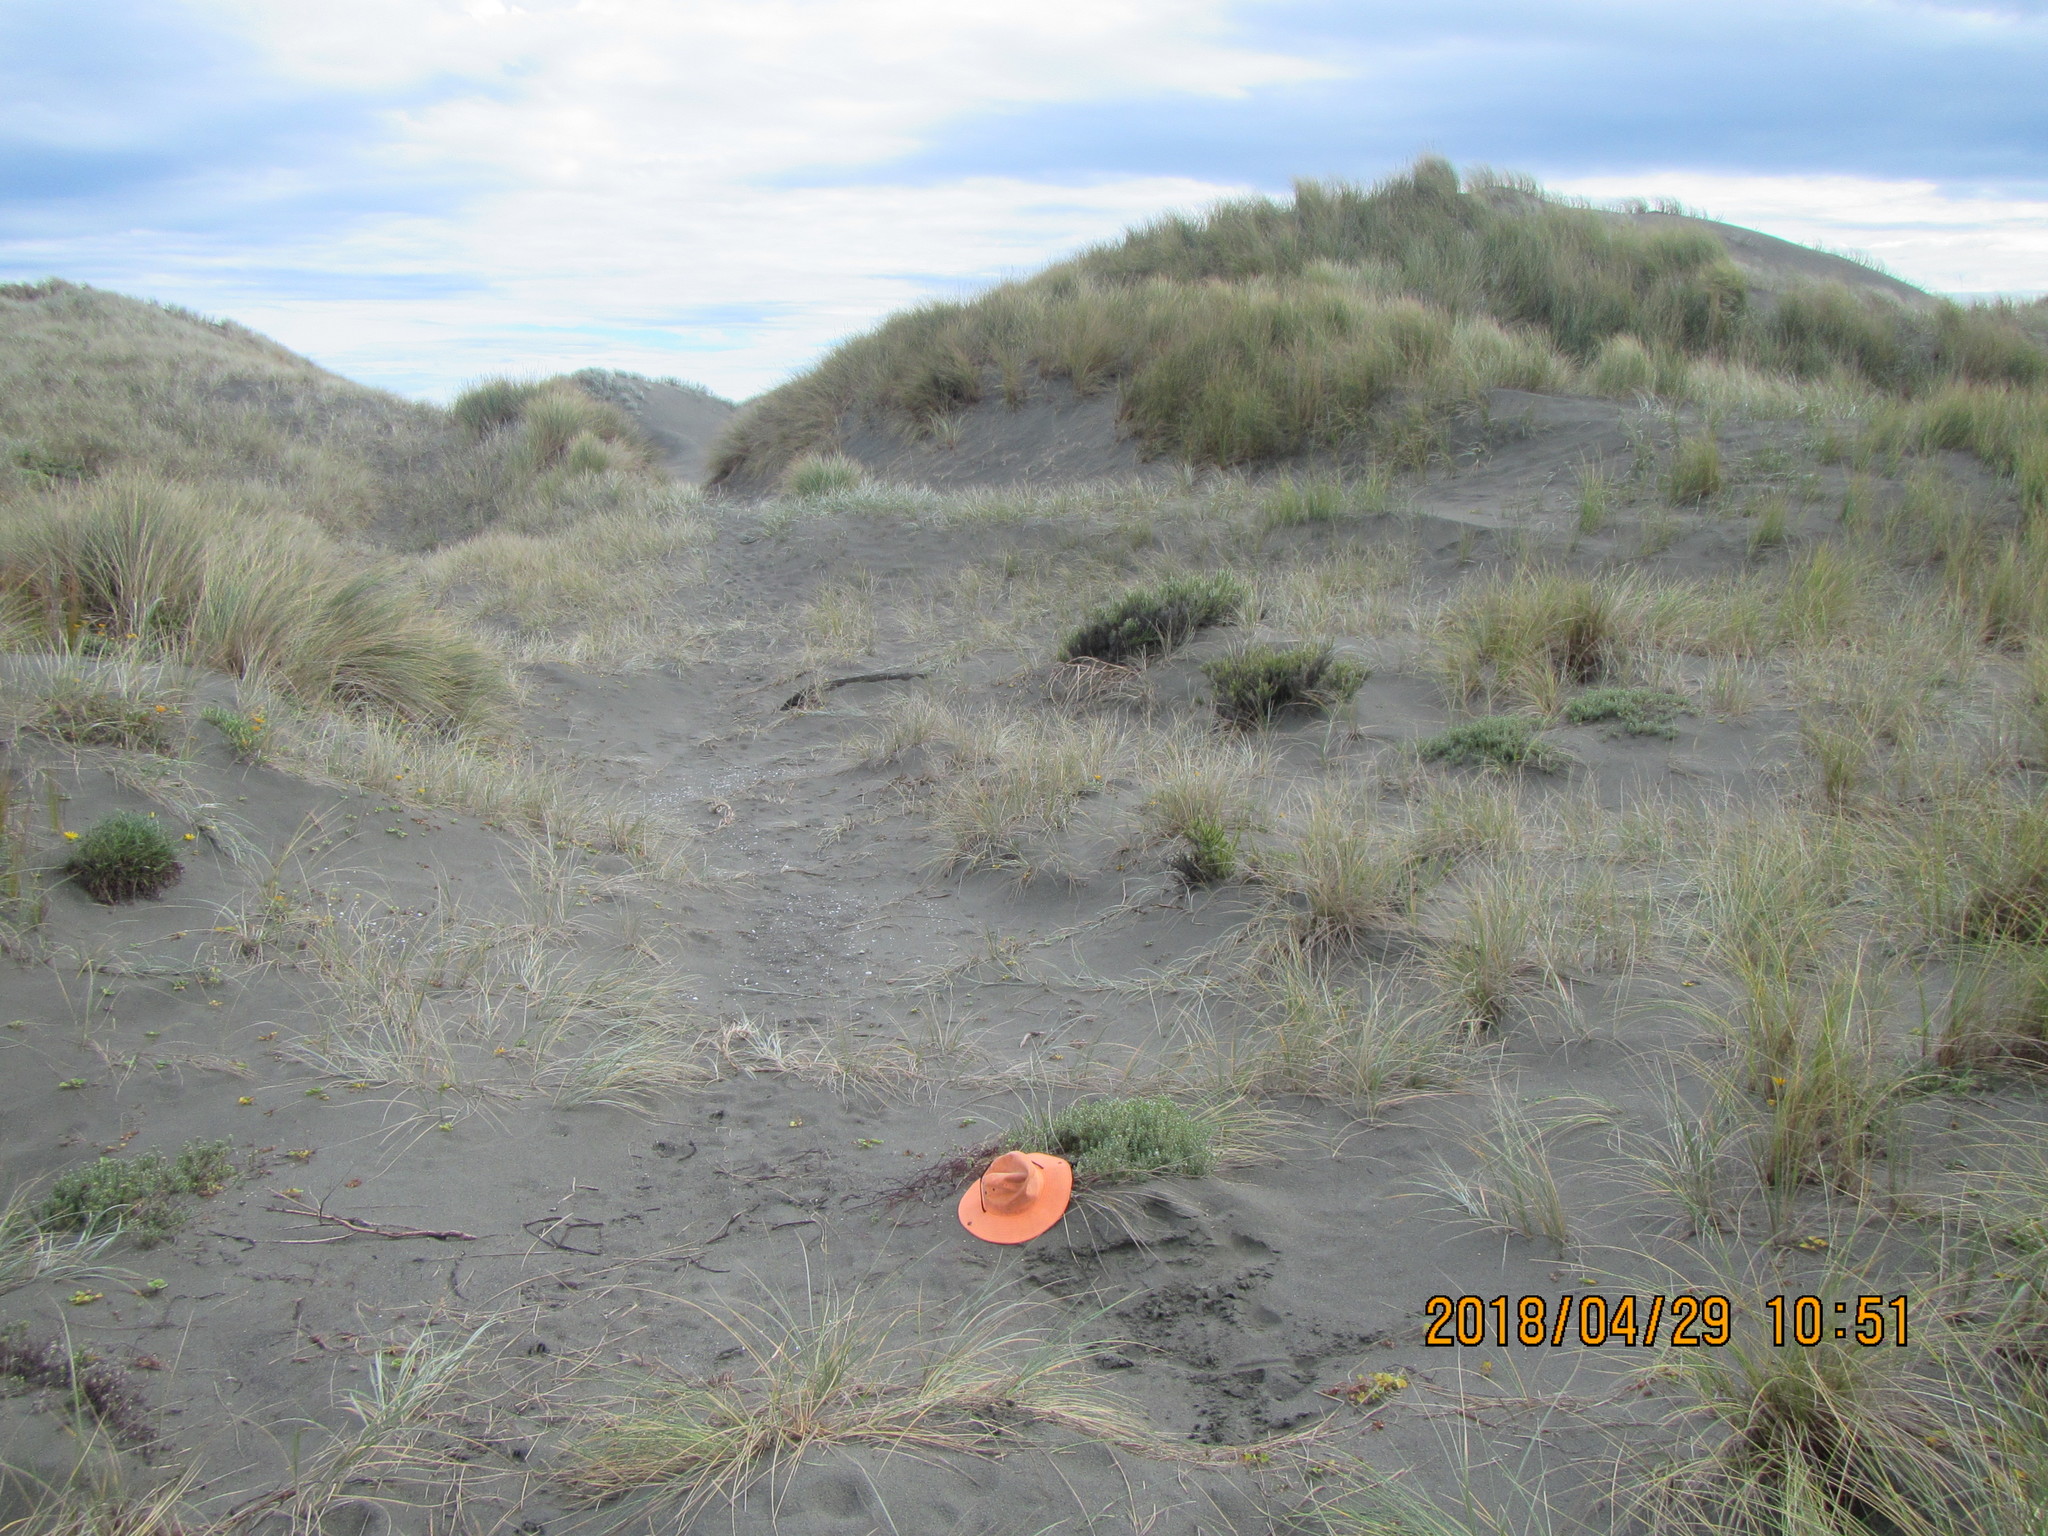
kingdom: Plantae
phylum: Tracheophyta
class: Magnoliopsida
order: Malvales
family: Thymelaeaceae
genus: Pimelea
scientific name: Pimelea villosa
